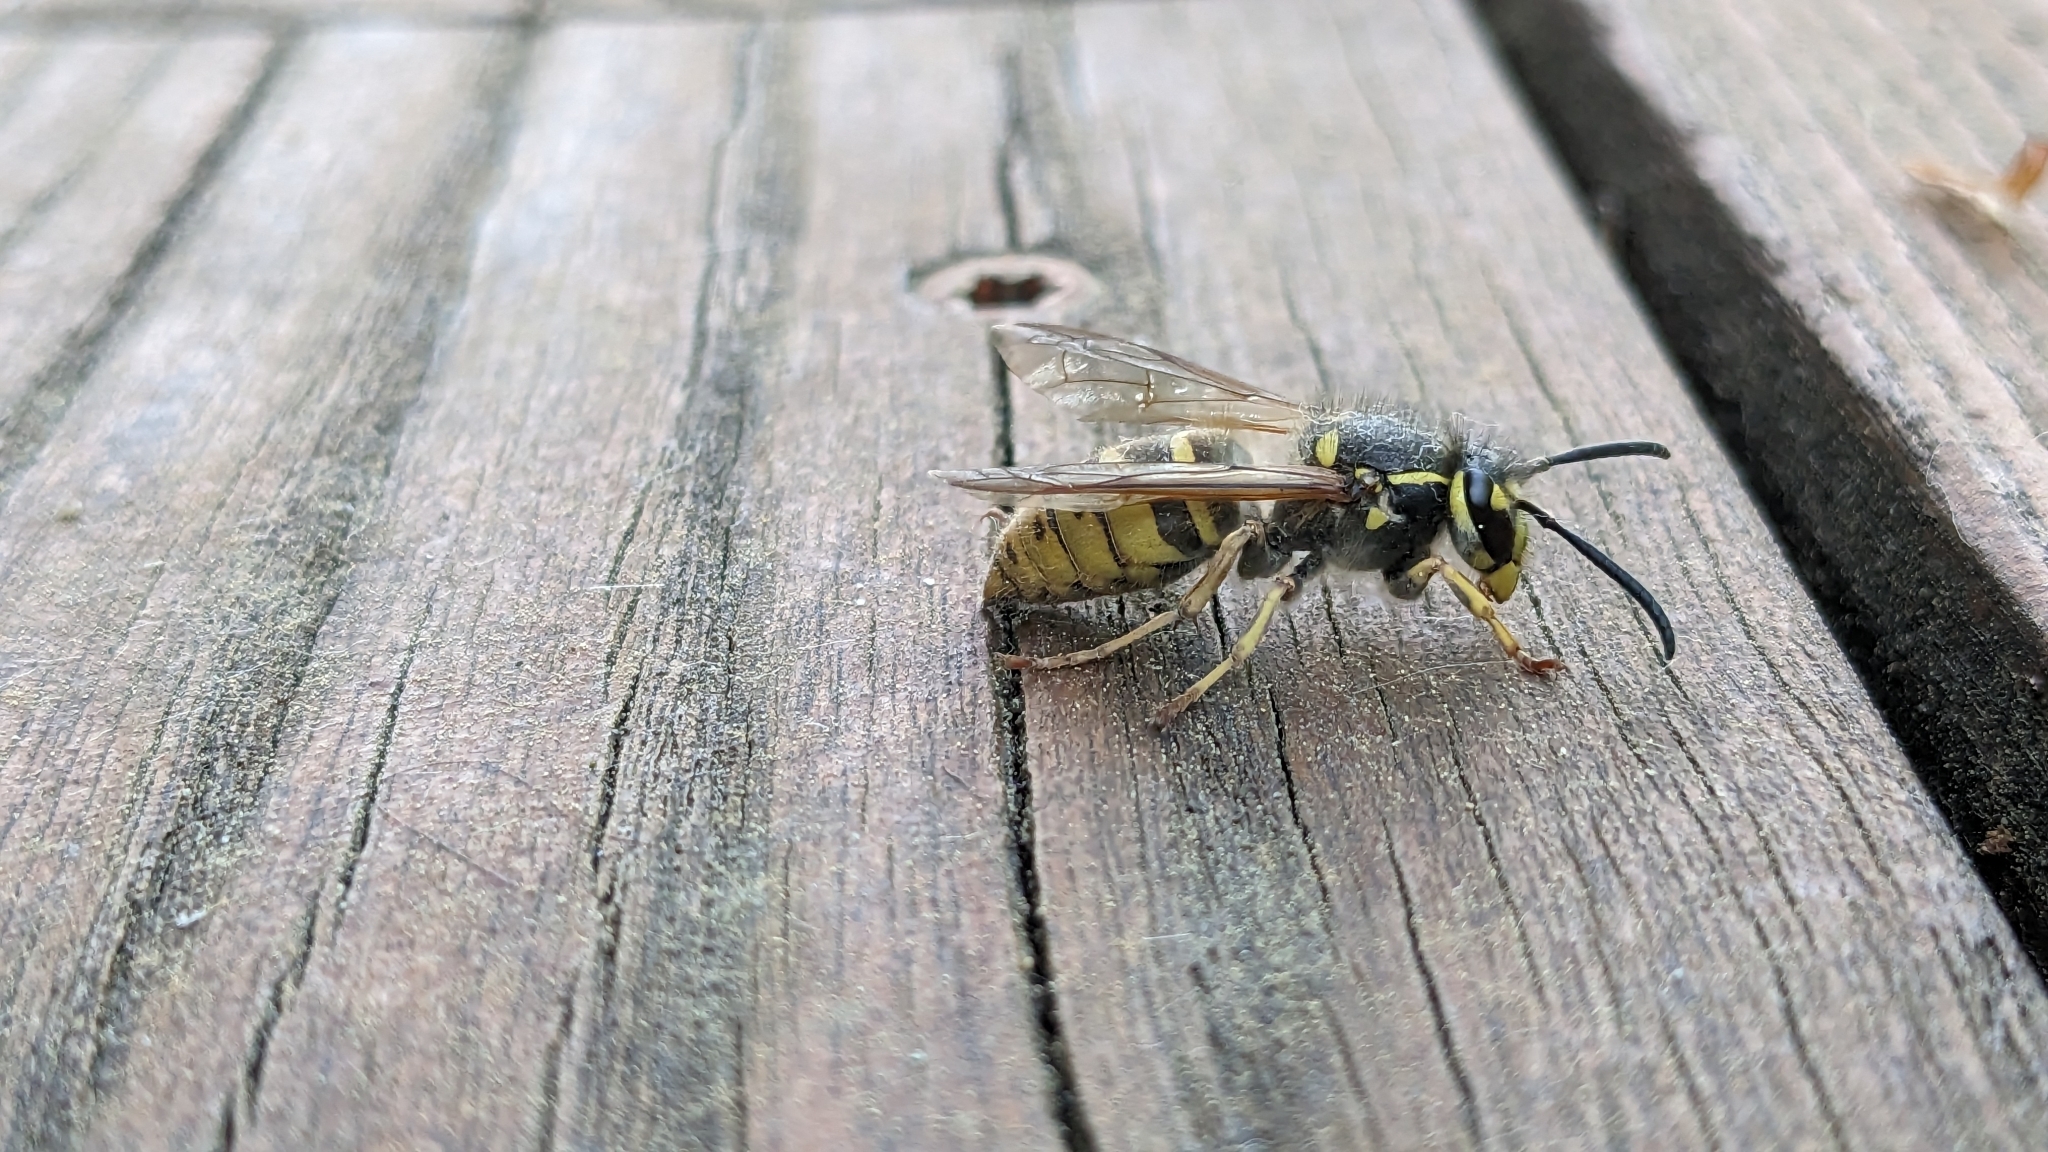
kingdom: Animalia
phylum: Arthropoda
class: Insecta
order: Hymenoptera
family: Vespidae
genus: Vespula
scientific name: Vespula vulgaris
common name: Common wasp
